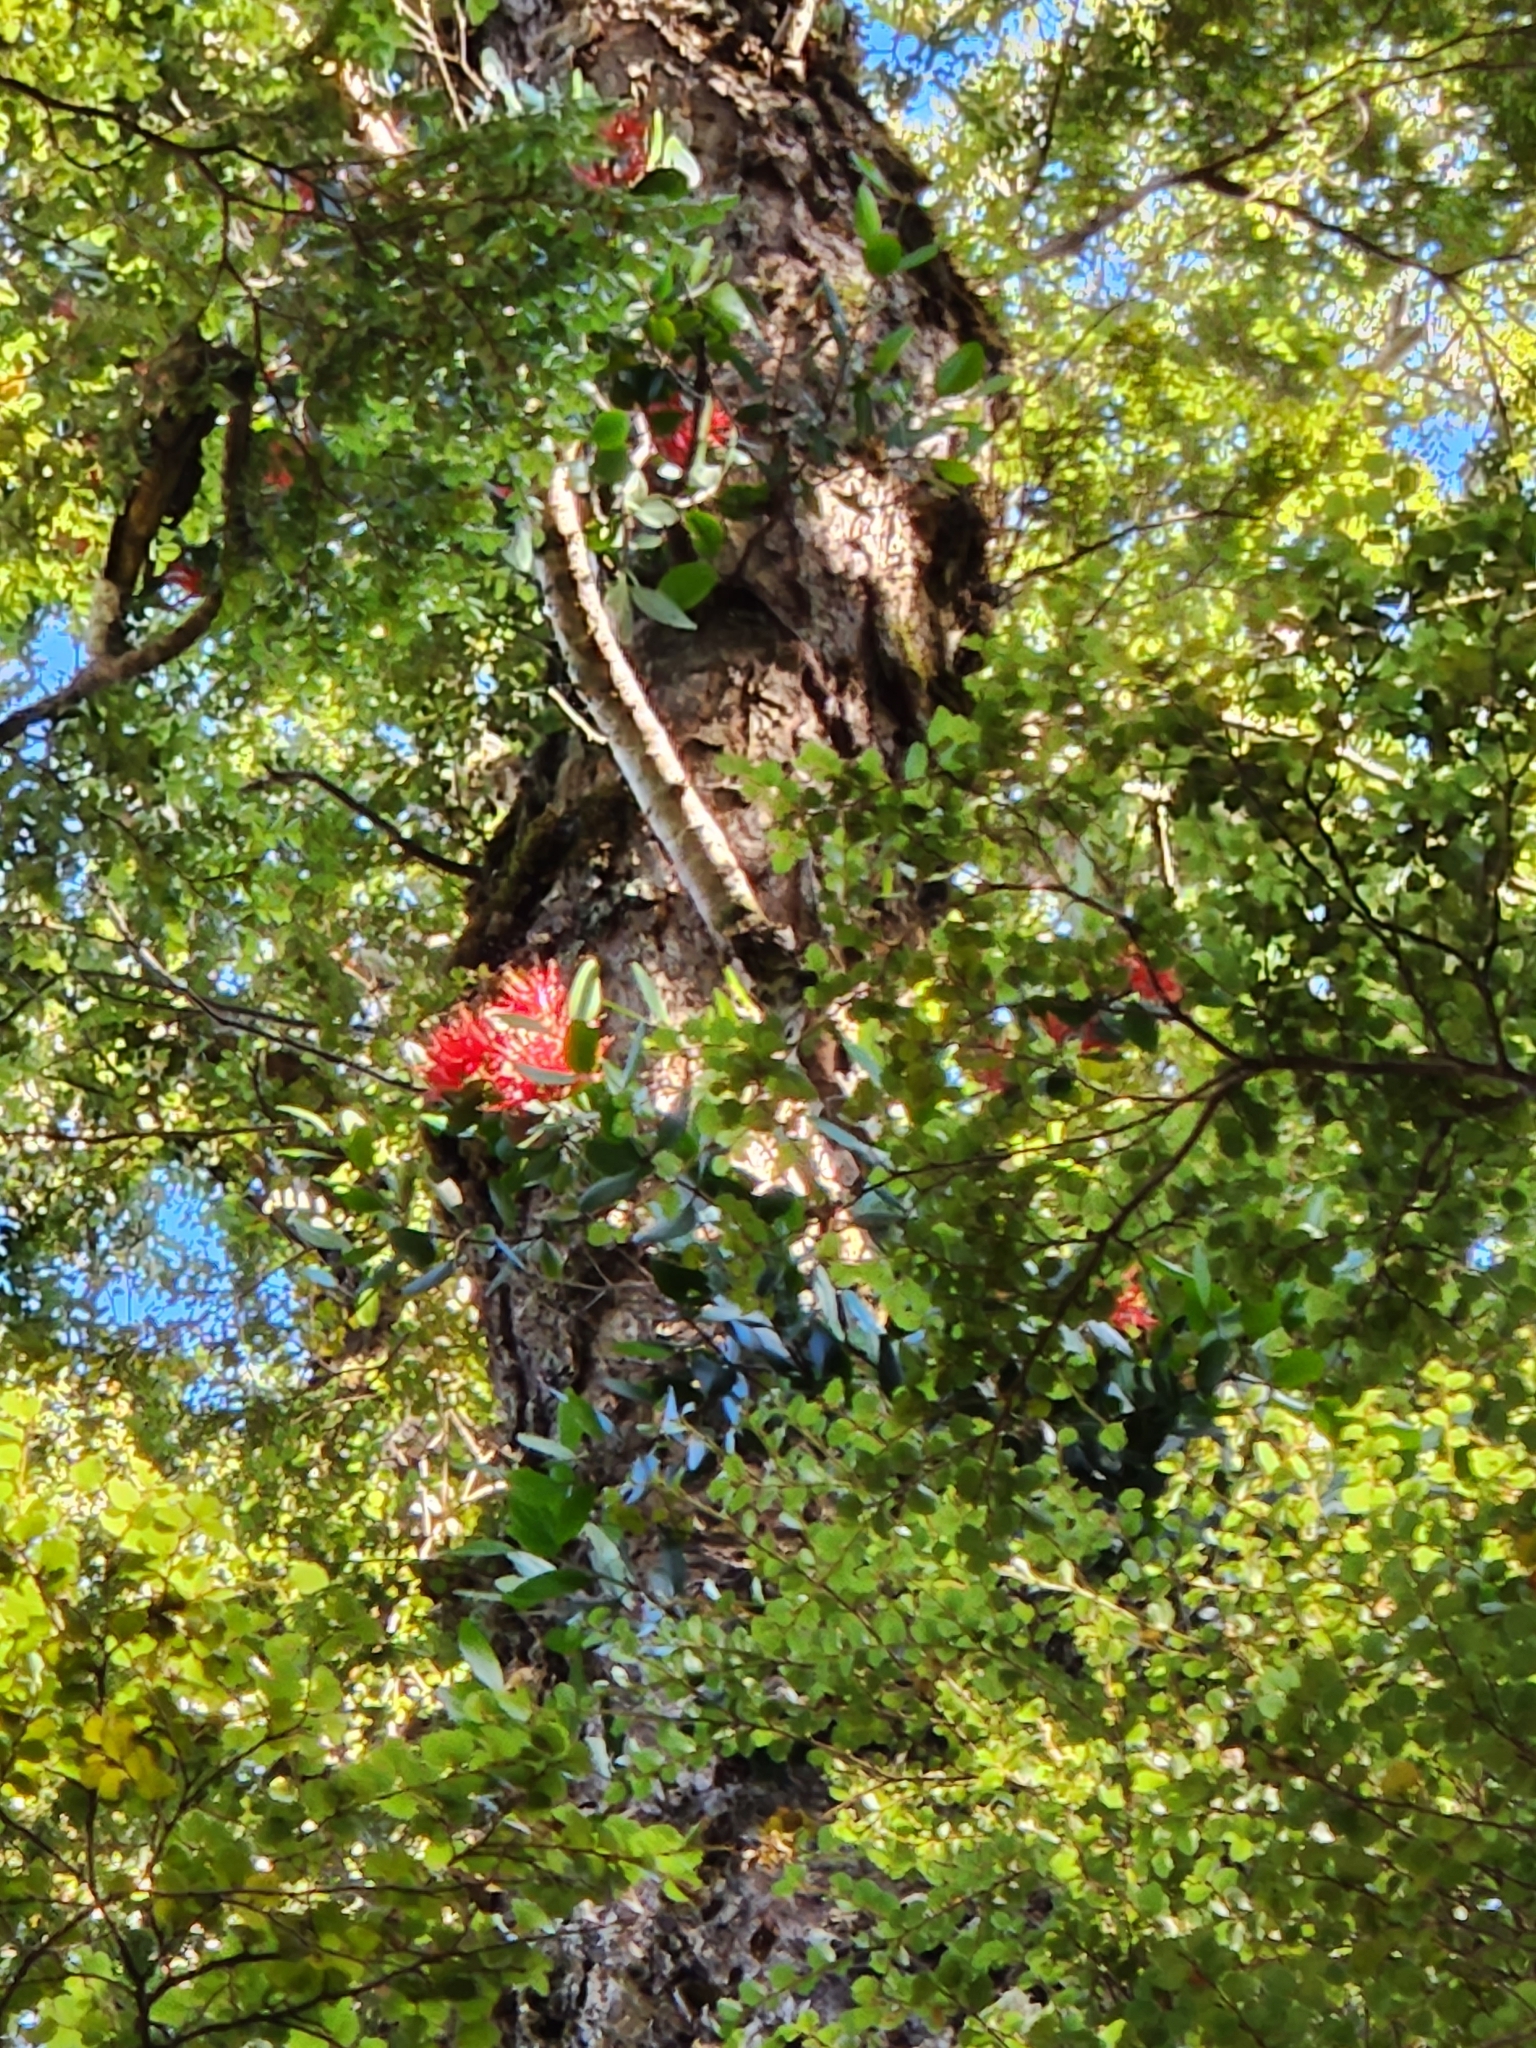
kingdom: Plantae
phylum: Tracheophyta
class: Magnoliopsida
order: Santalales
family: Loranthaceae
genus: Peraxilla
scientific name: Peraxilla colensoi
